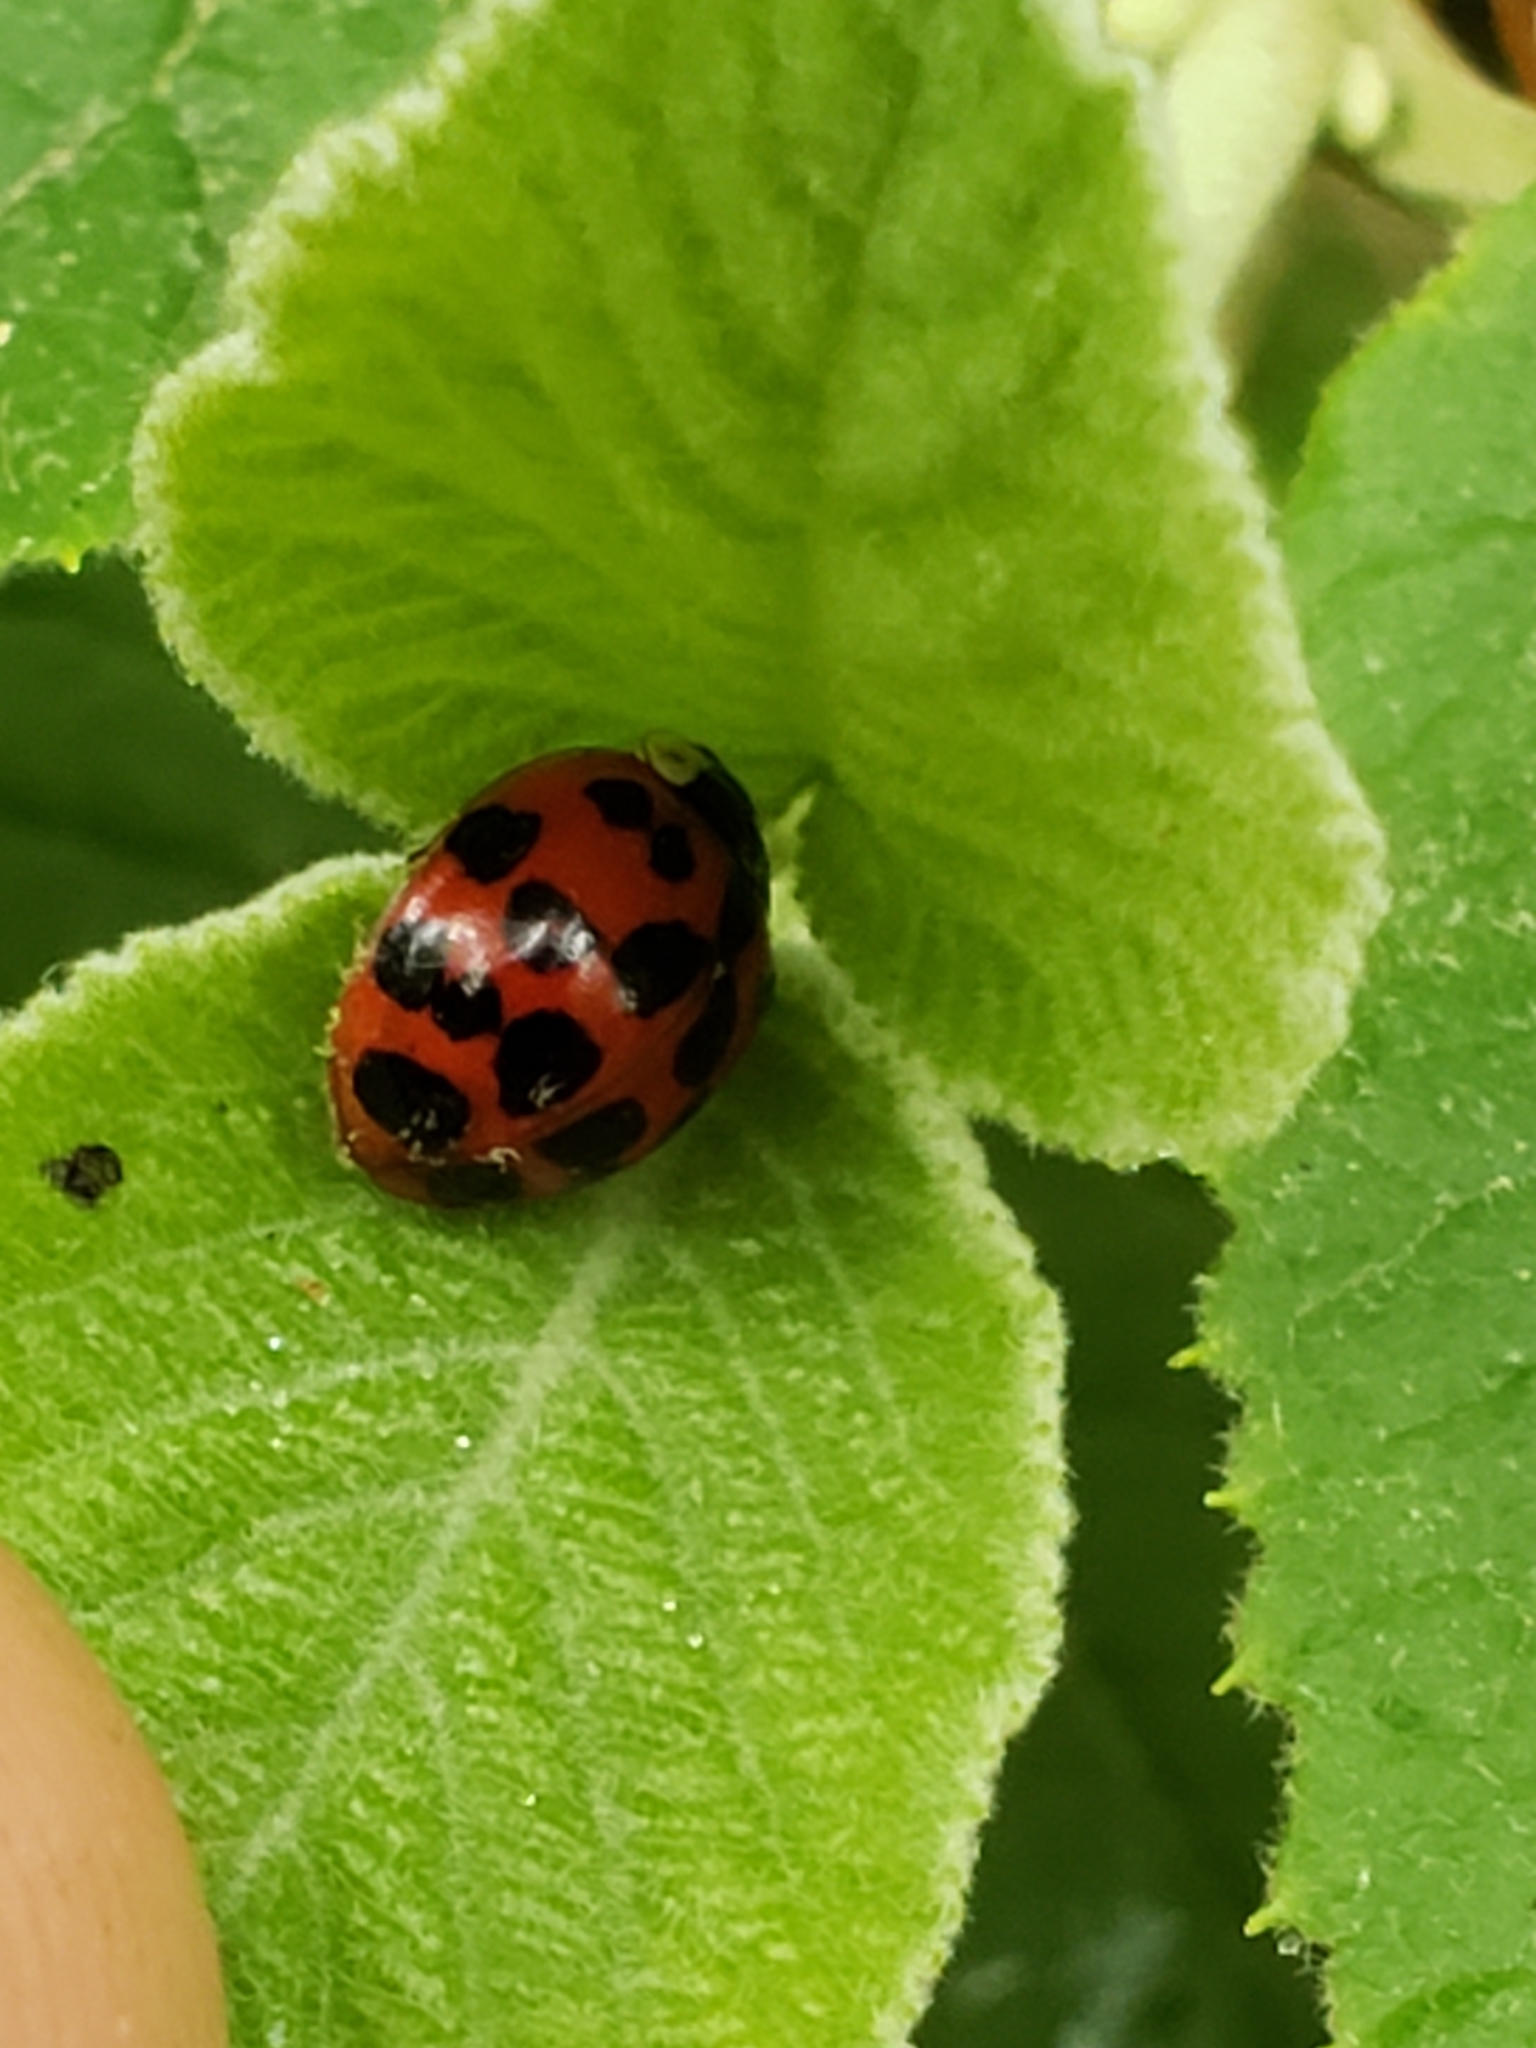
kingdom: Animalia
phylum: Arthropoda
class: Insecta
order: Coleoptera
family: Coccinellidae
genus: Harmonia
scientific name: Harmonia axyridis
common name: Harlequin ladybird
